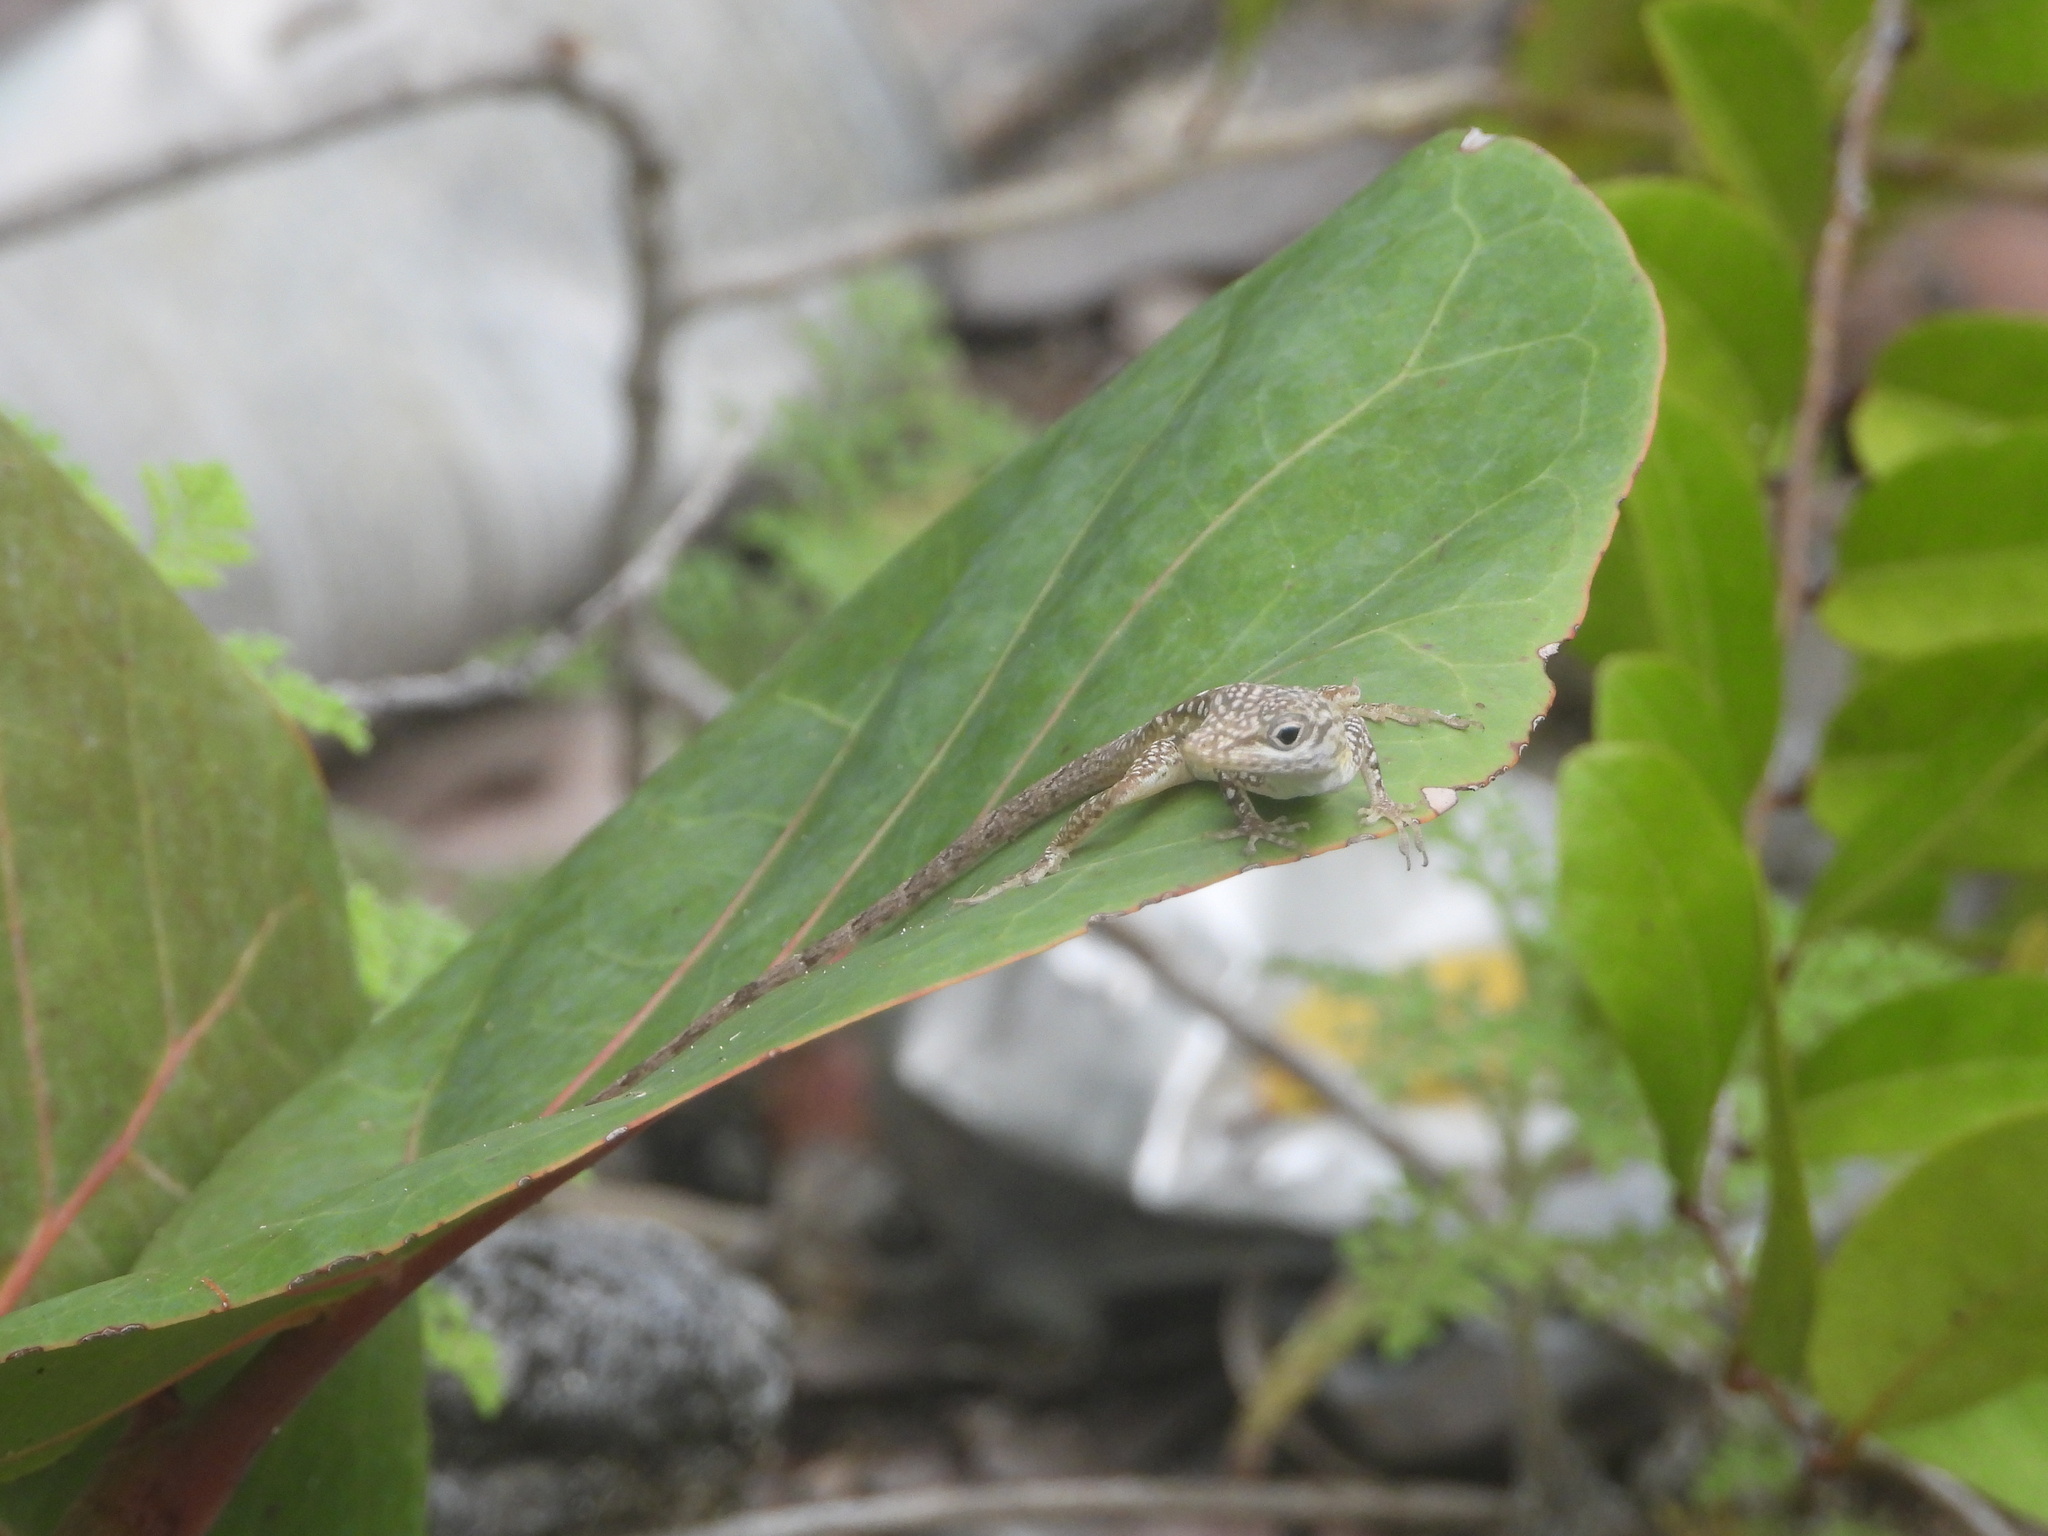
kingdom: Animalia
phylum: Chordata
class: Squamata
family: Dactyloidae
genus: Anolis
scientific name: Anolis conspersus
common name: Grand cayman anole
